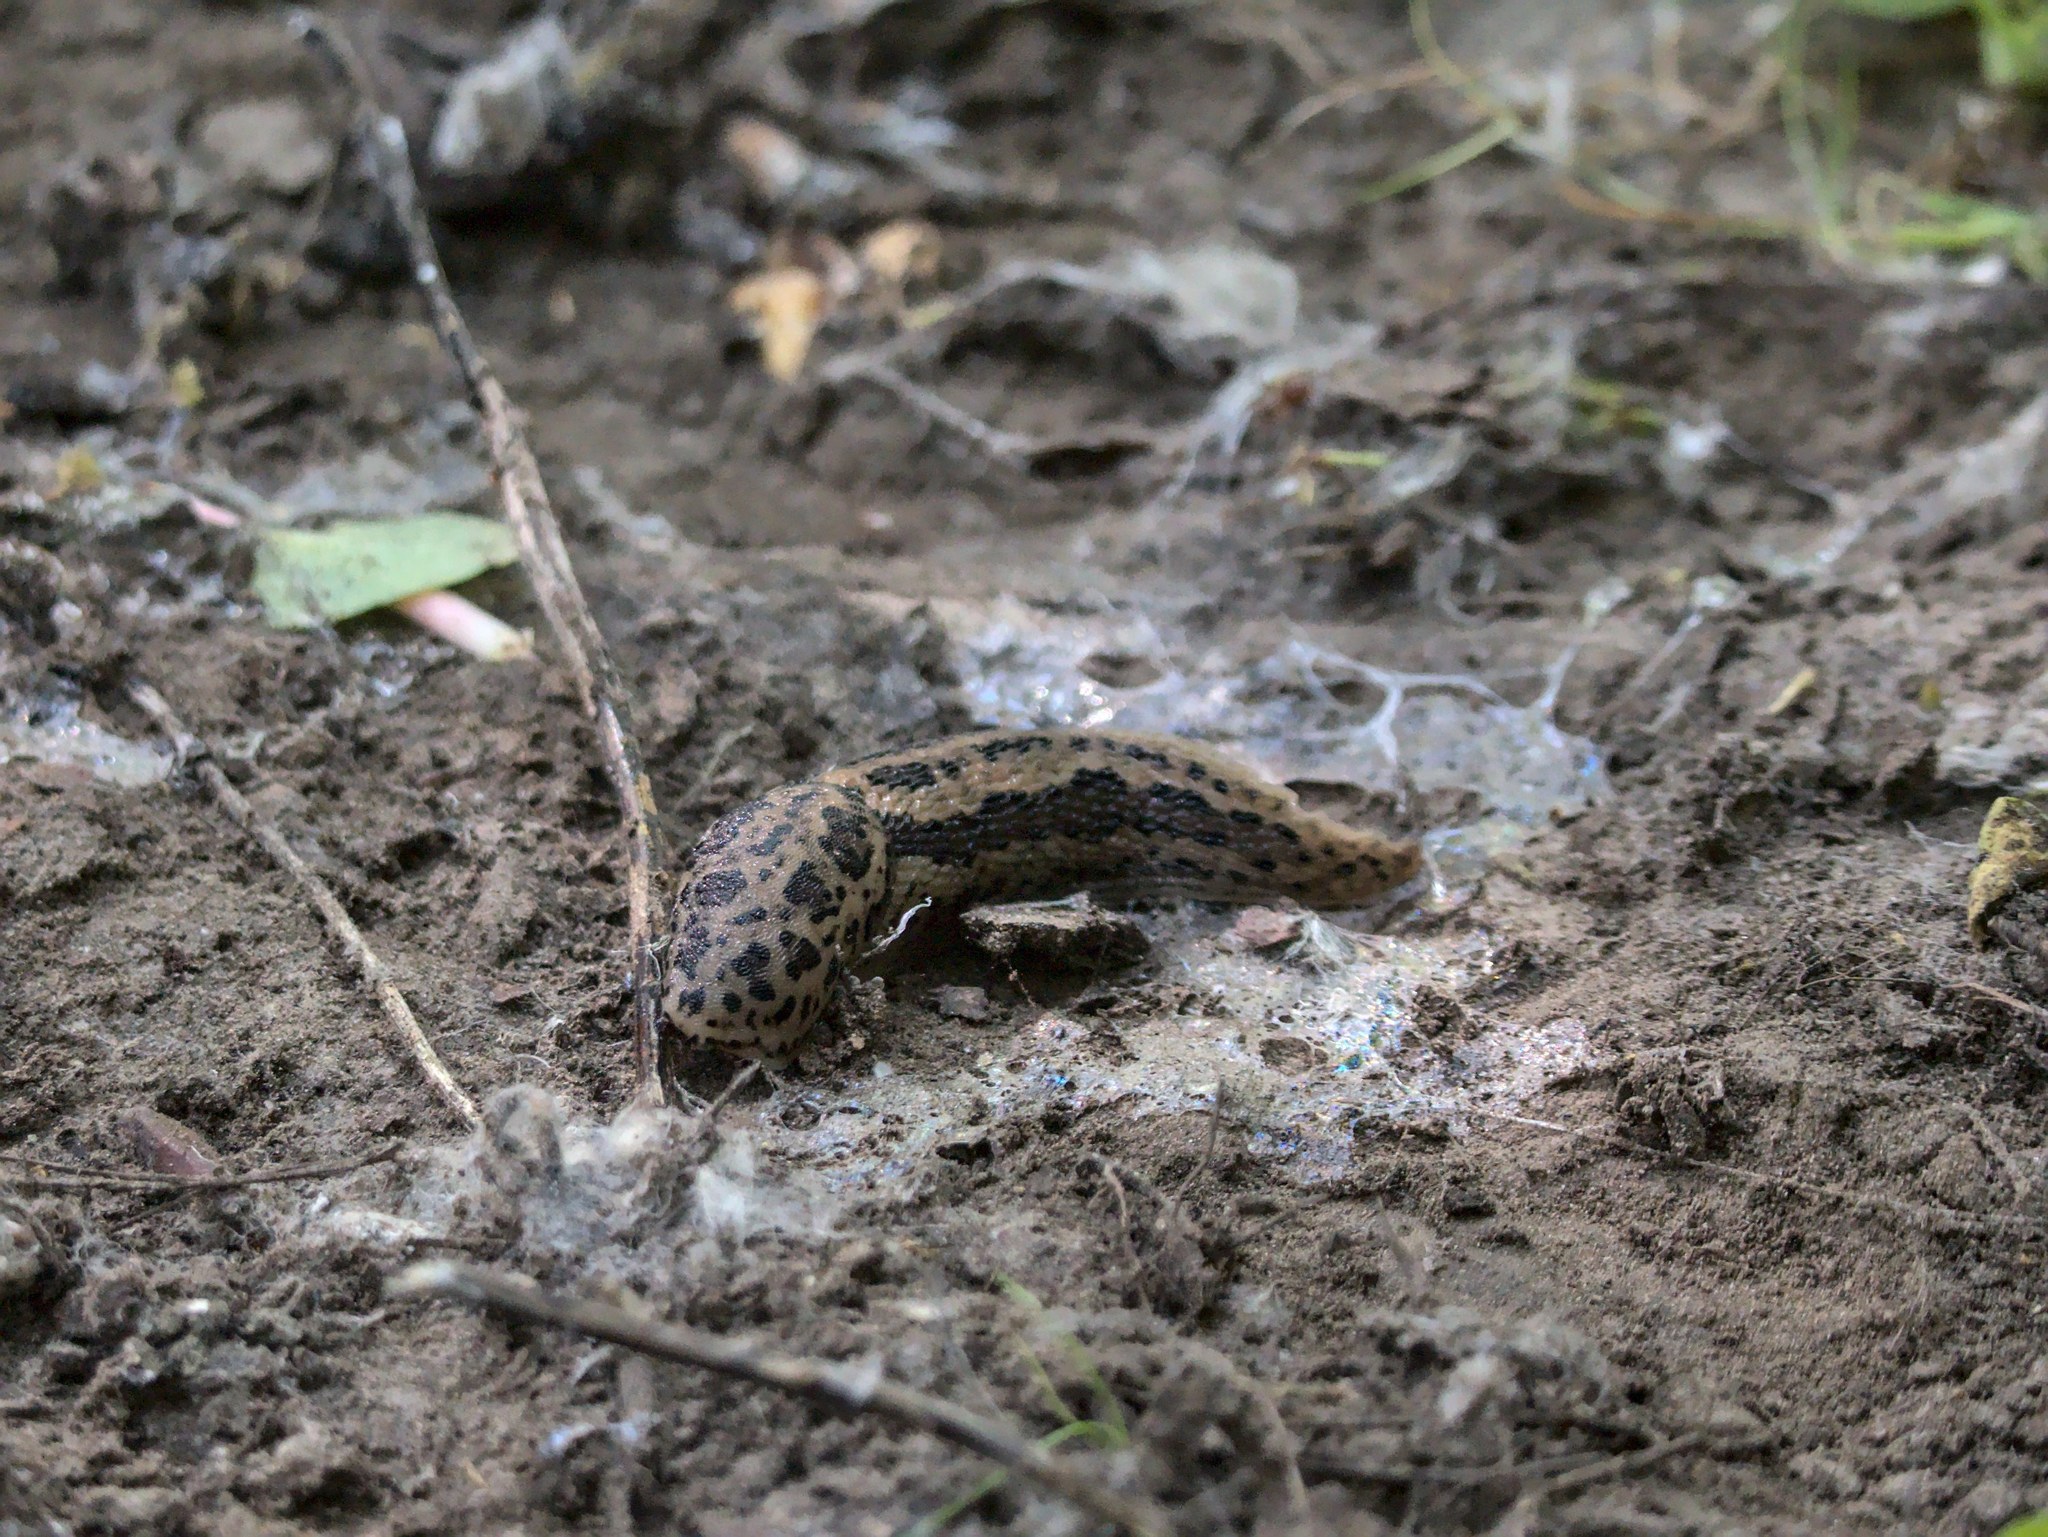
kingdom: Animalia
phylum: Mollusca
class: Gastropoda
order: Stylommatophora
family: Limacidae
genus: Limax
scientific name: Limax maximus
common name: Great grey slug
